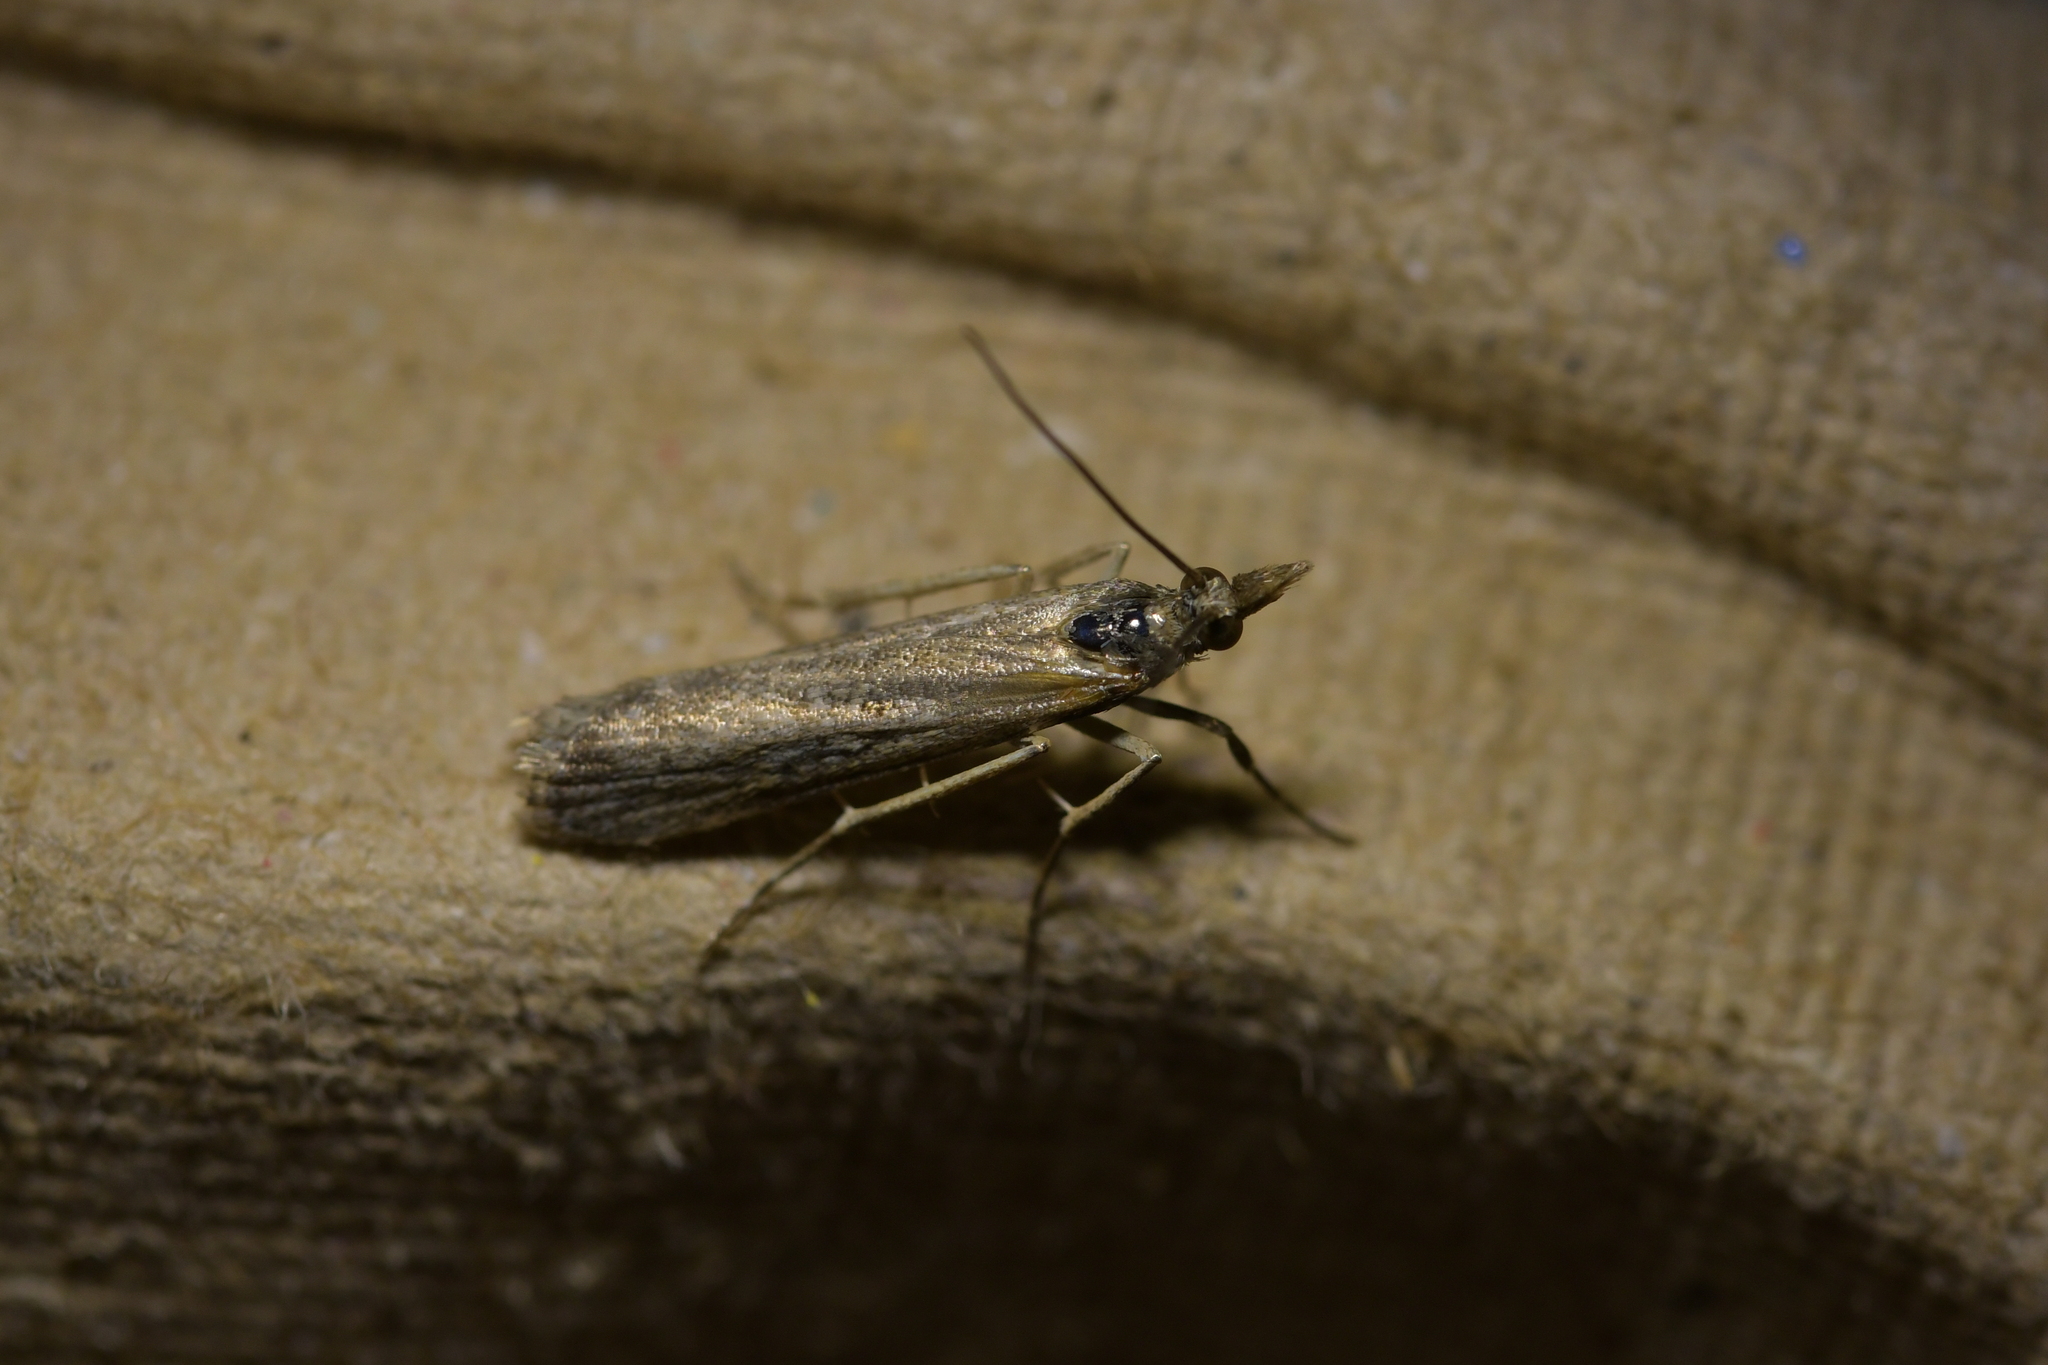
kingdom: Animalia
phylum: Arthropoda
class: Insecta
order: Lepidoptera
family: Crambidae
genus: Eudonia
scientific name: Eudonia leptalea
